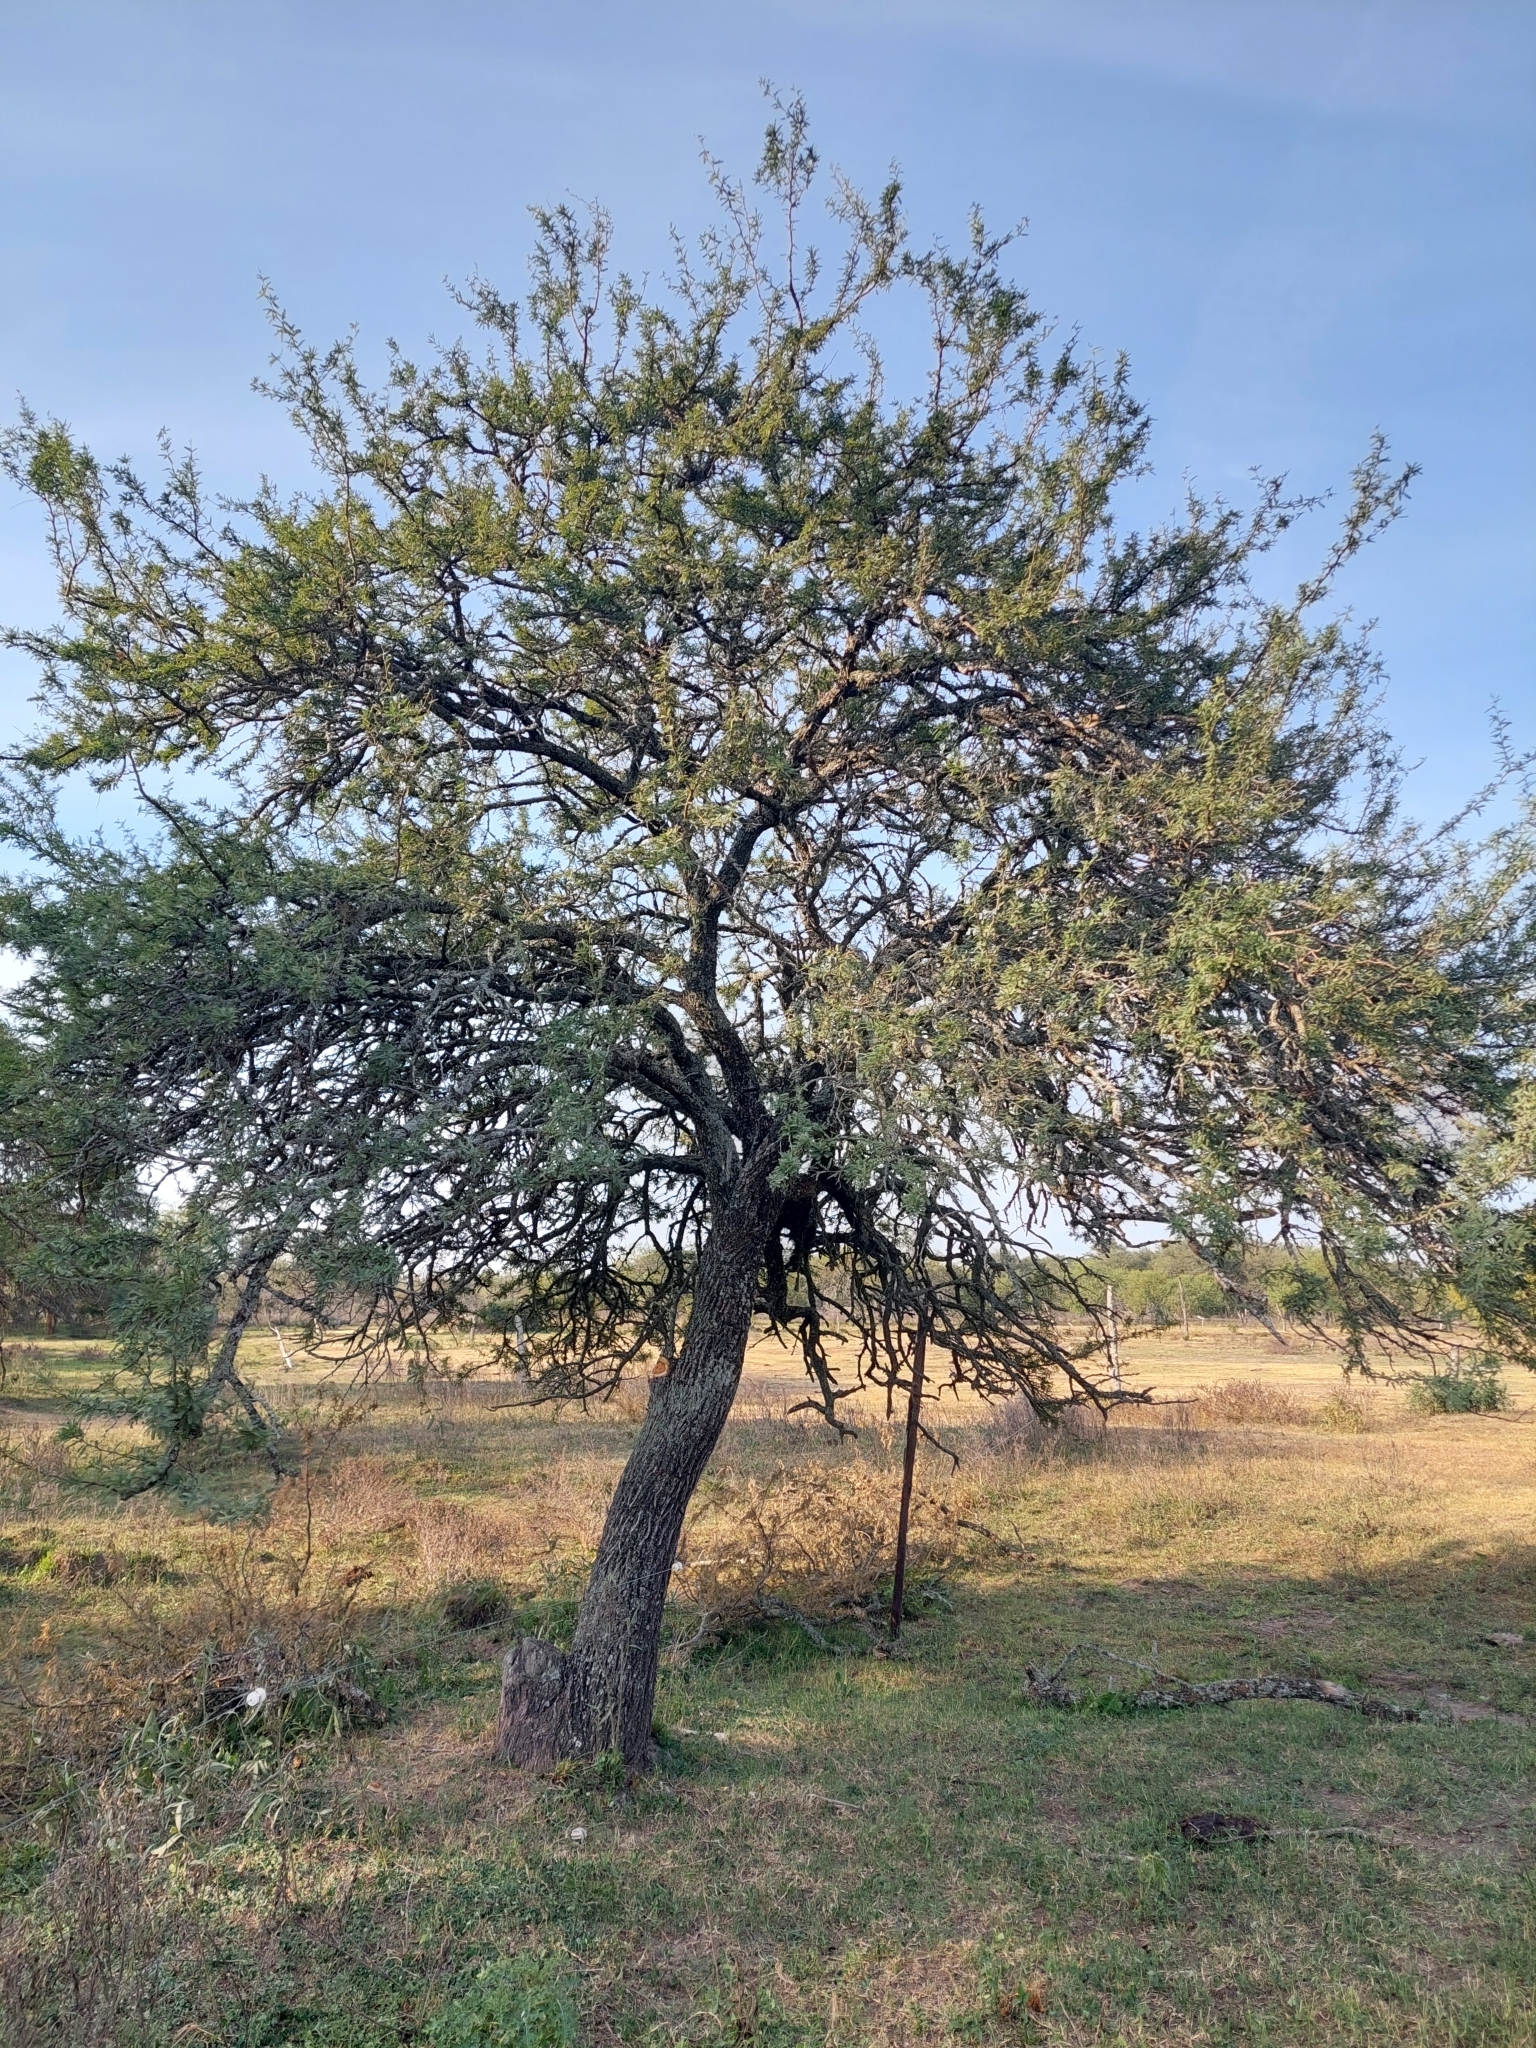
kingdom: Plantae
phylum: Tracheophyta
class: Magnoliopsida
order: Fabales
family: Fabaceae
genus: Prosopis
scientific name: Prosopis affinis
